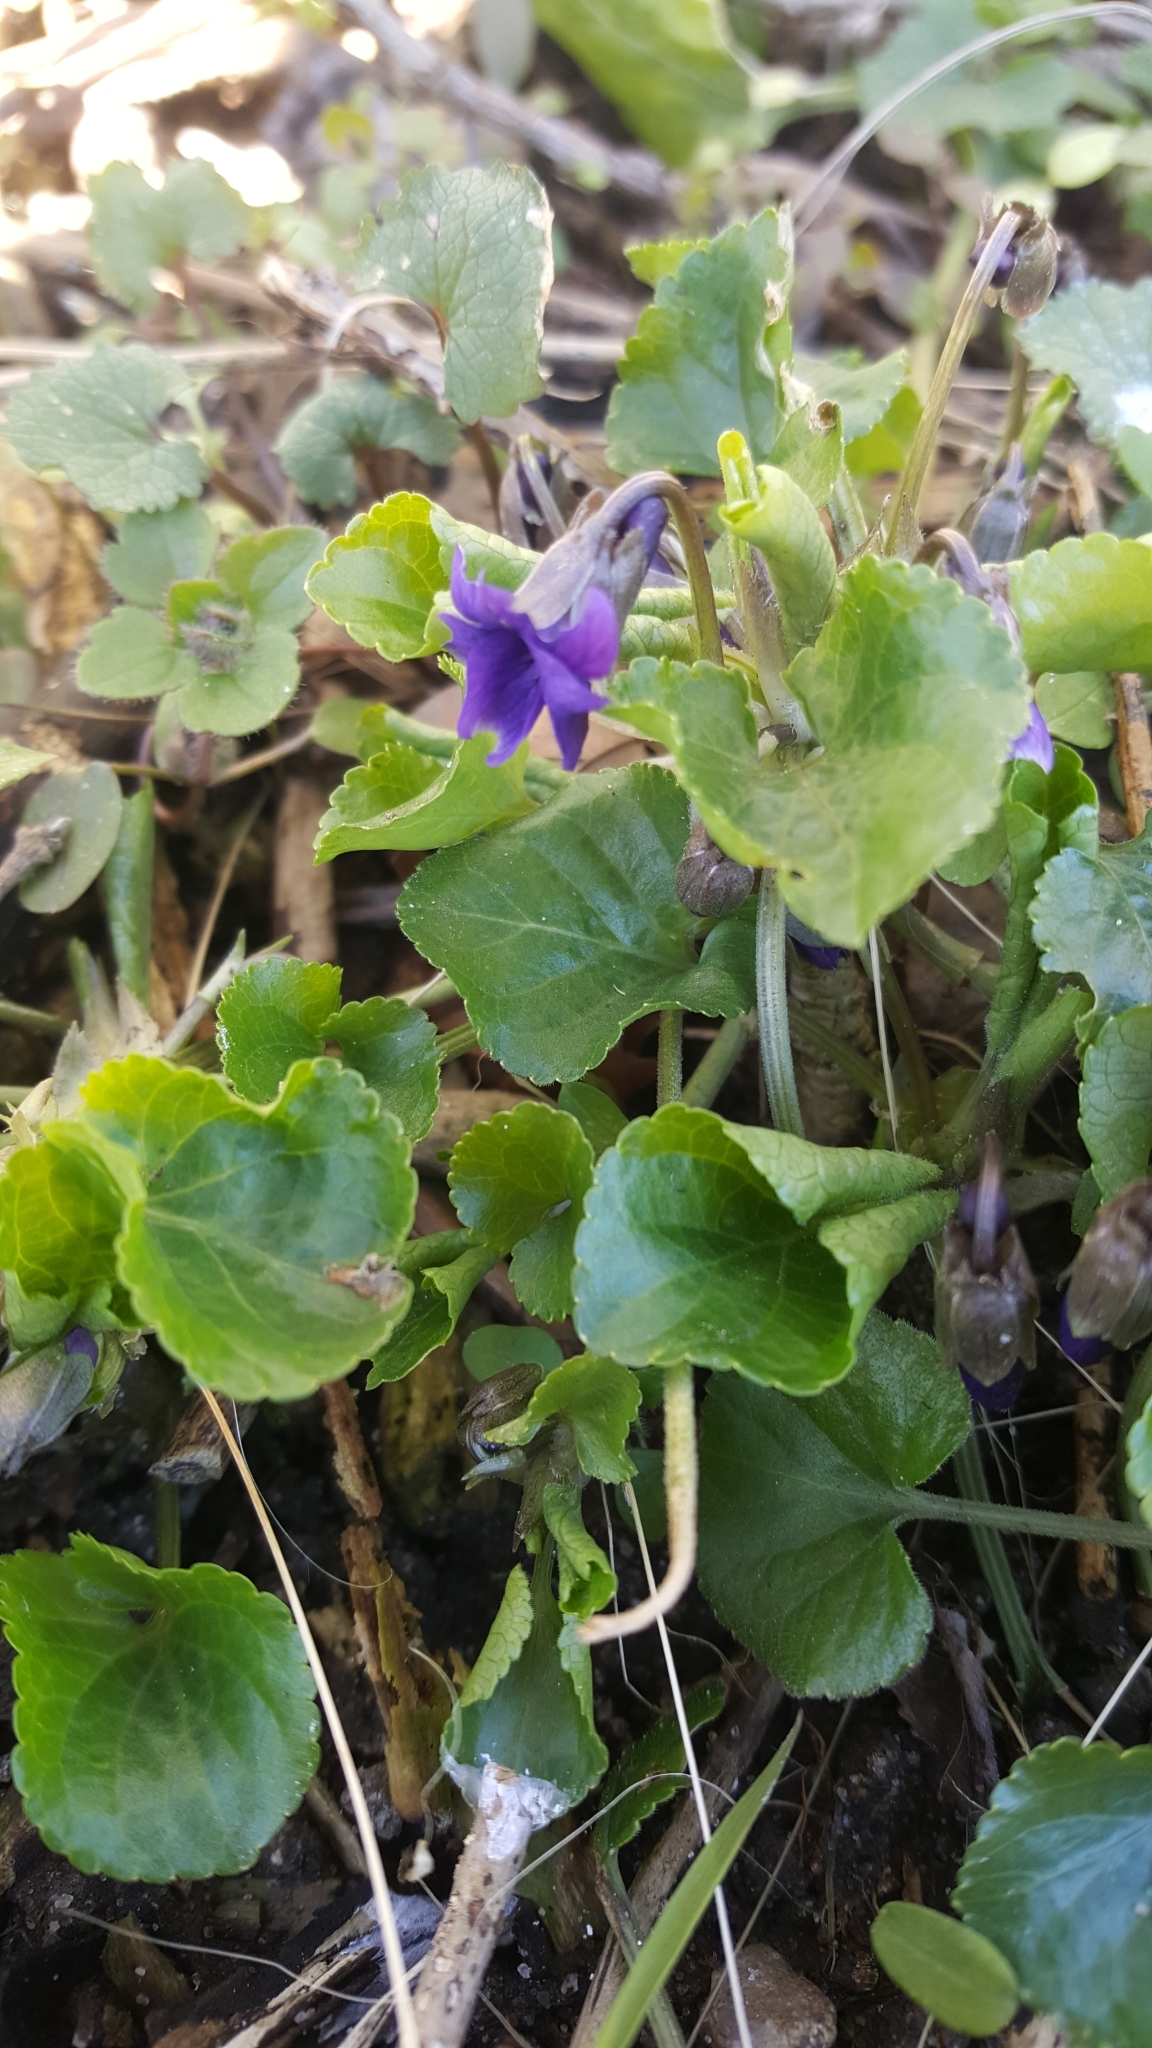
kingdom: Plantae
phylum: Tracheophyta
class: Magnoliopsida
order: Malpighiales
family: Violaceae
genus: Viola
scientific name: Viola odorata
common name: Sweet violet
